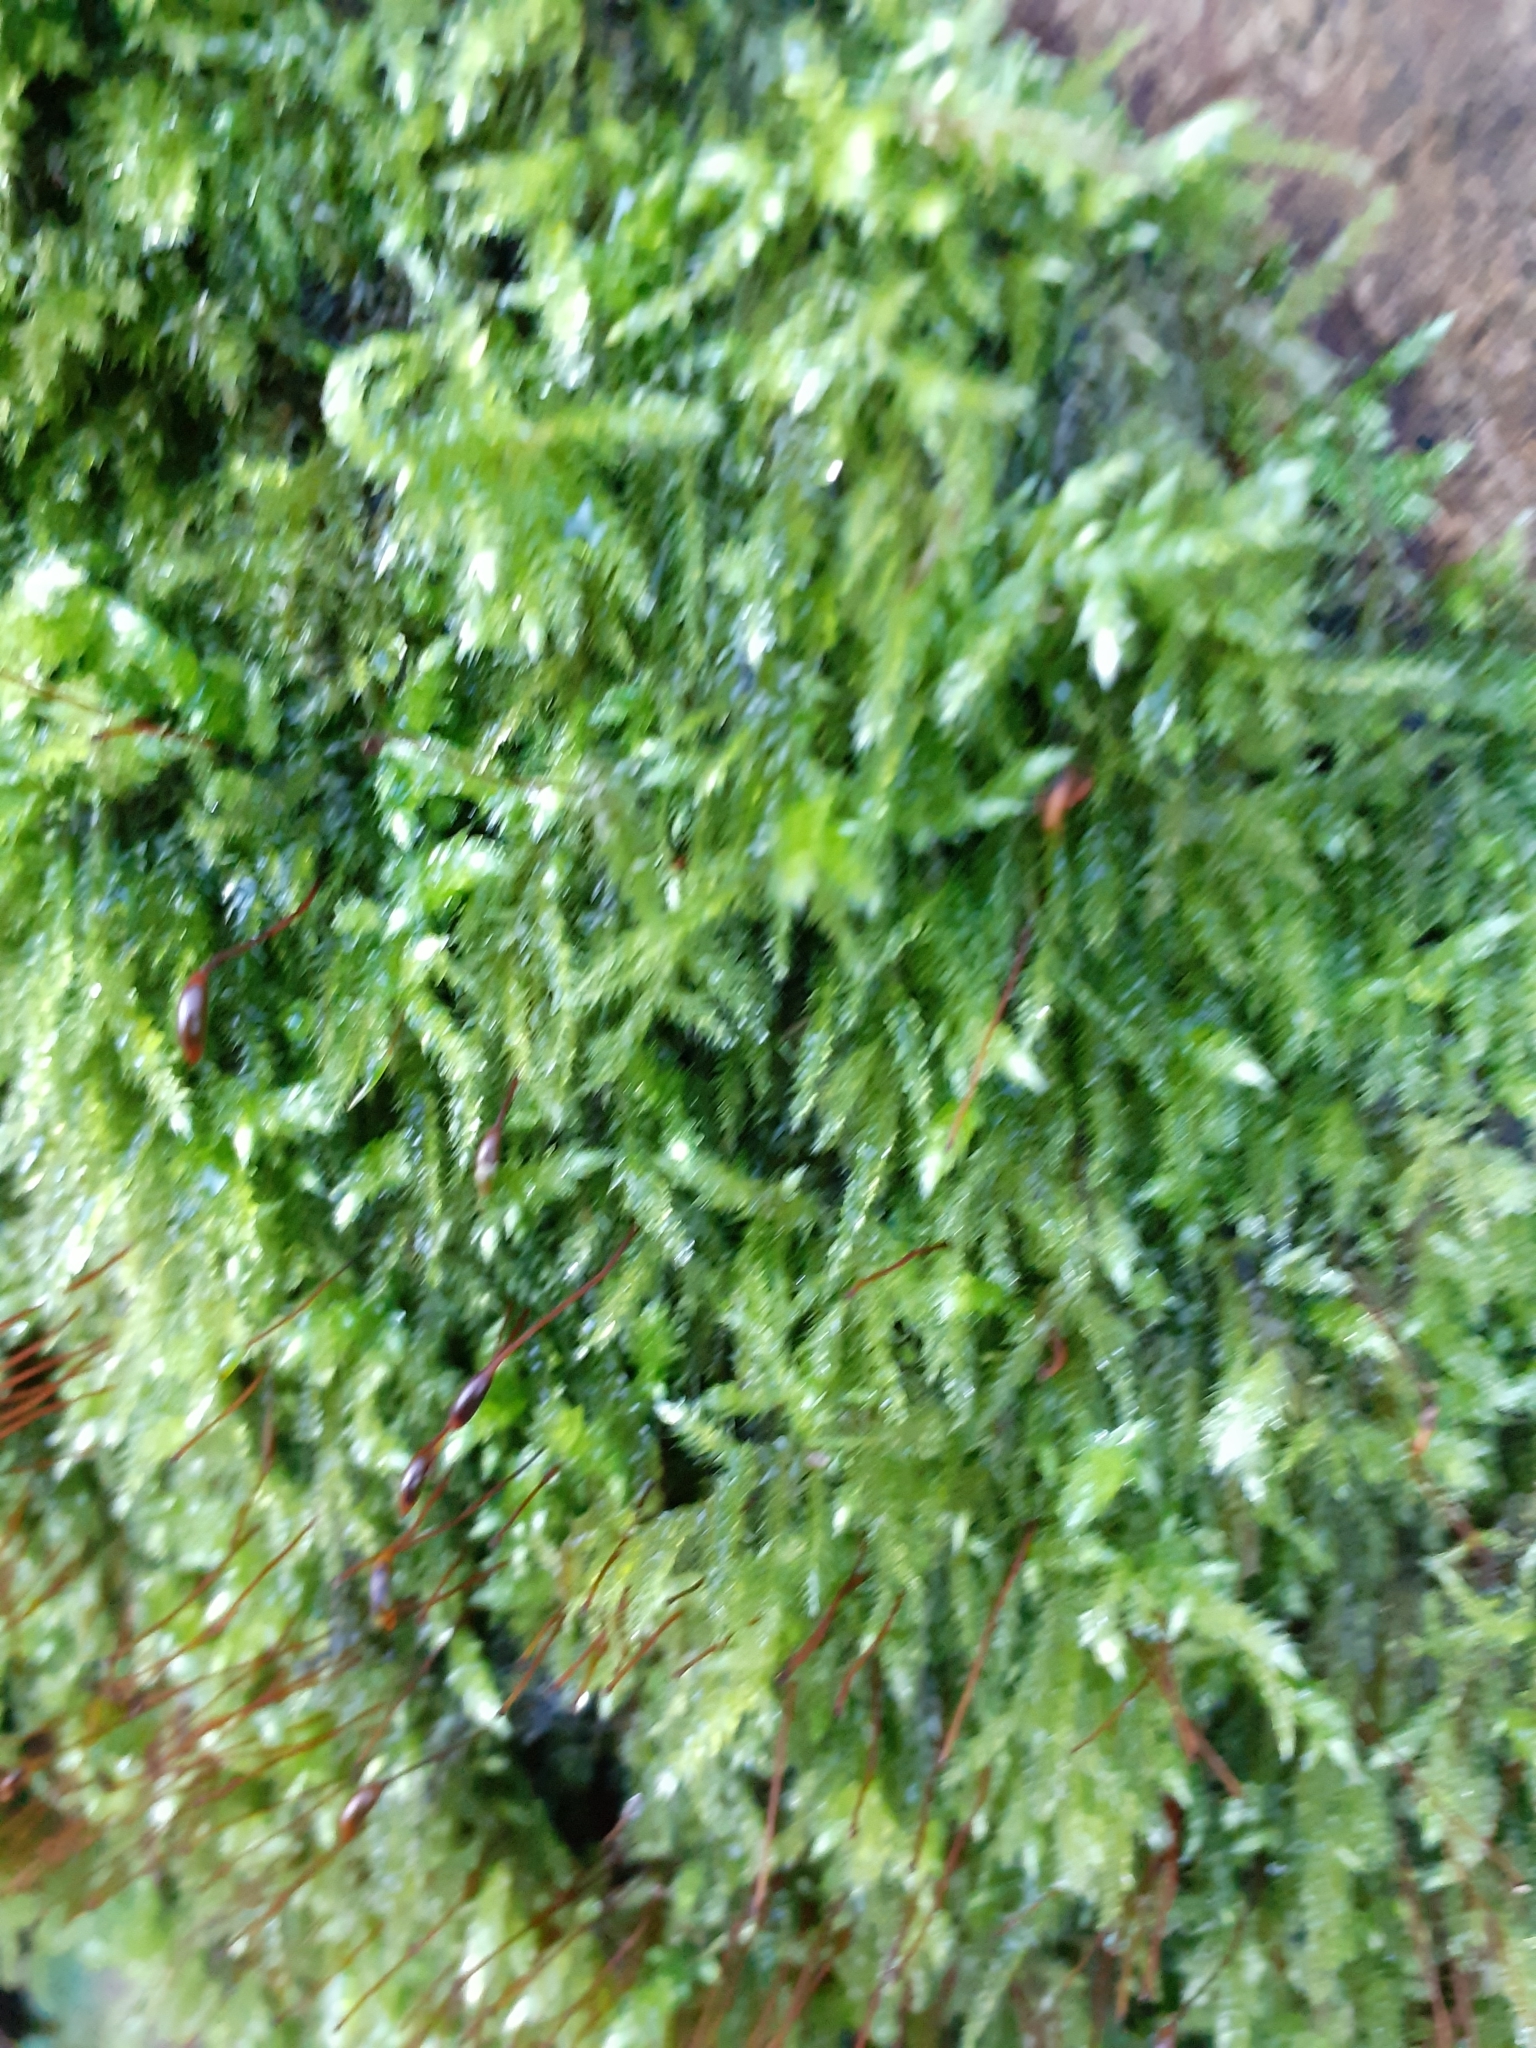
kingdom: Plantae
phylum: Bryophyta
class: Bryopsida
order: Hypnales
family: Hypnaceae
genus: Hypnum
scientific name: Hypnum cupressiforme
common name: Cypress-leaved plait-moss
